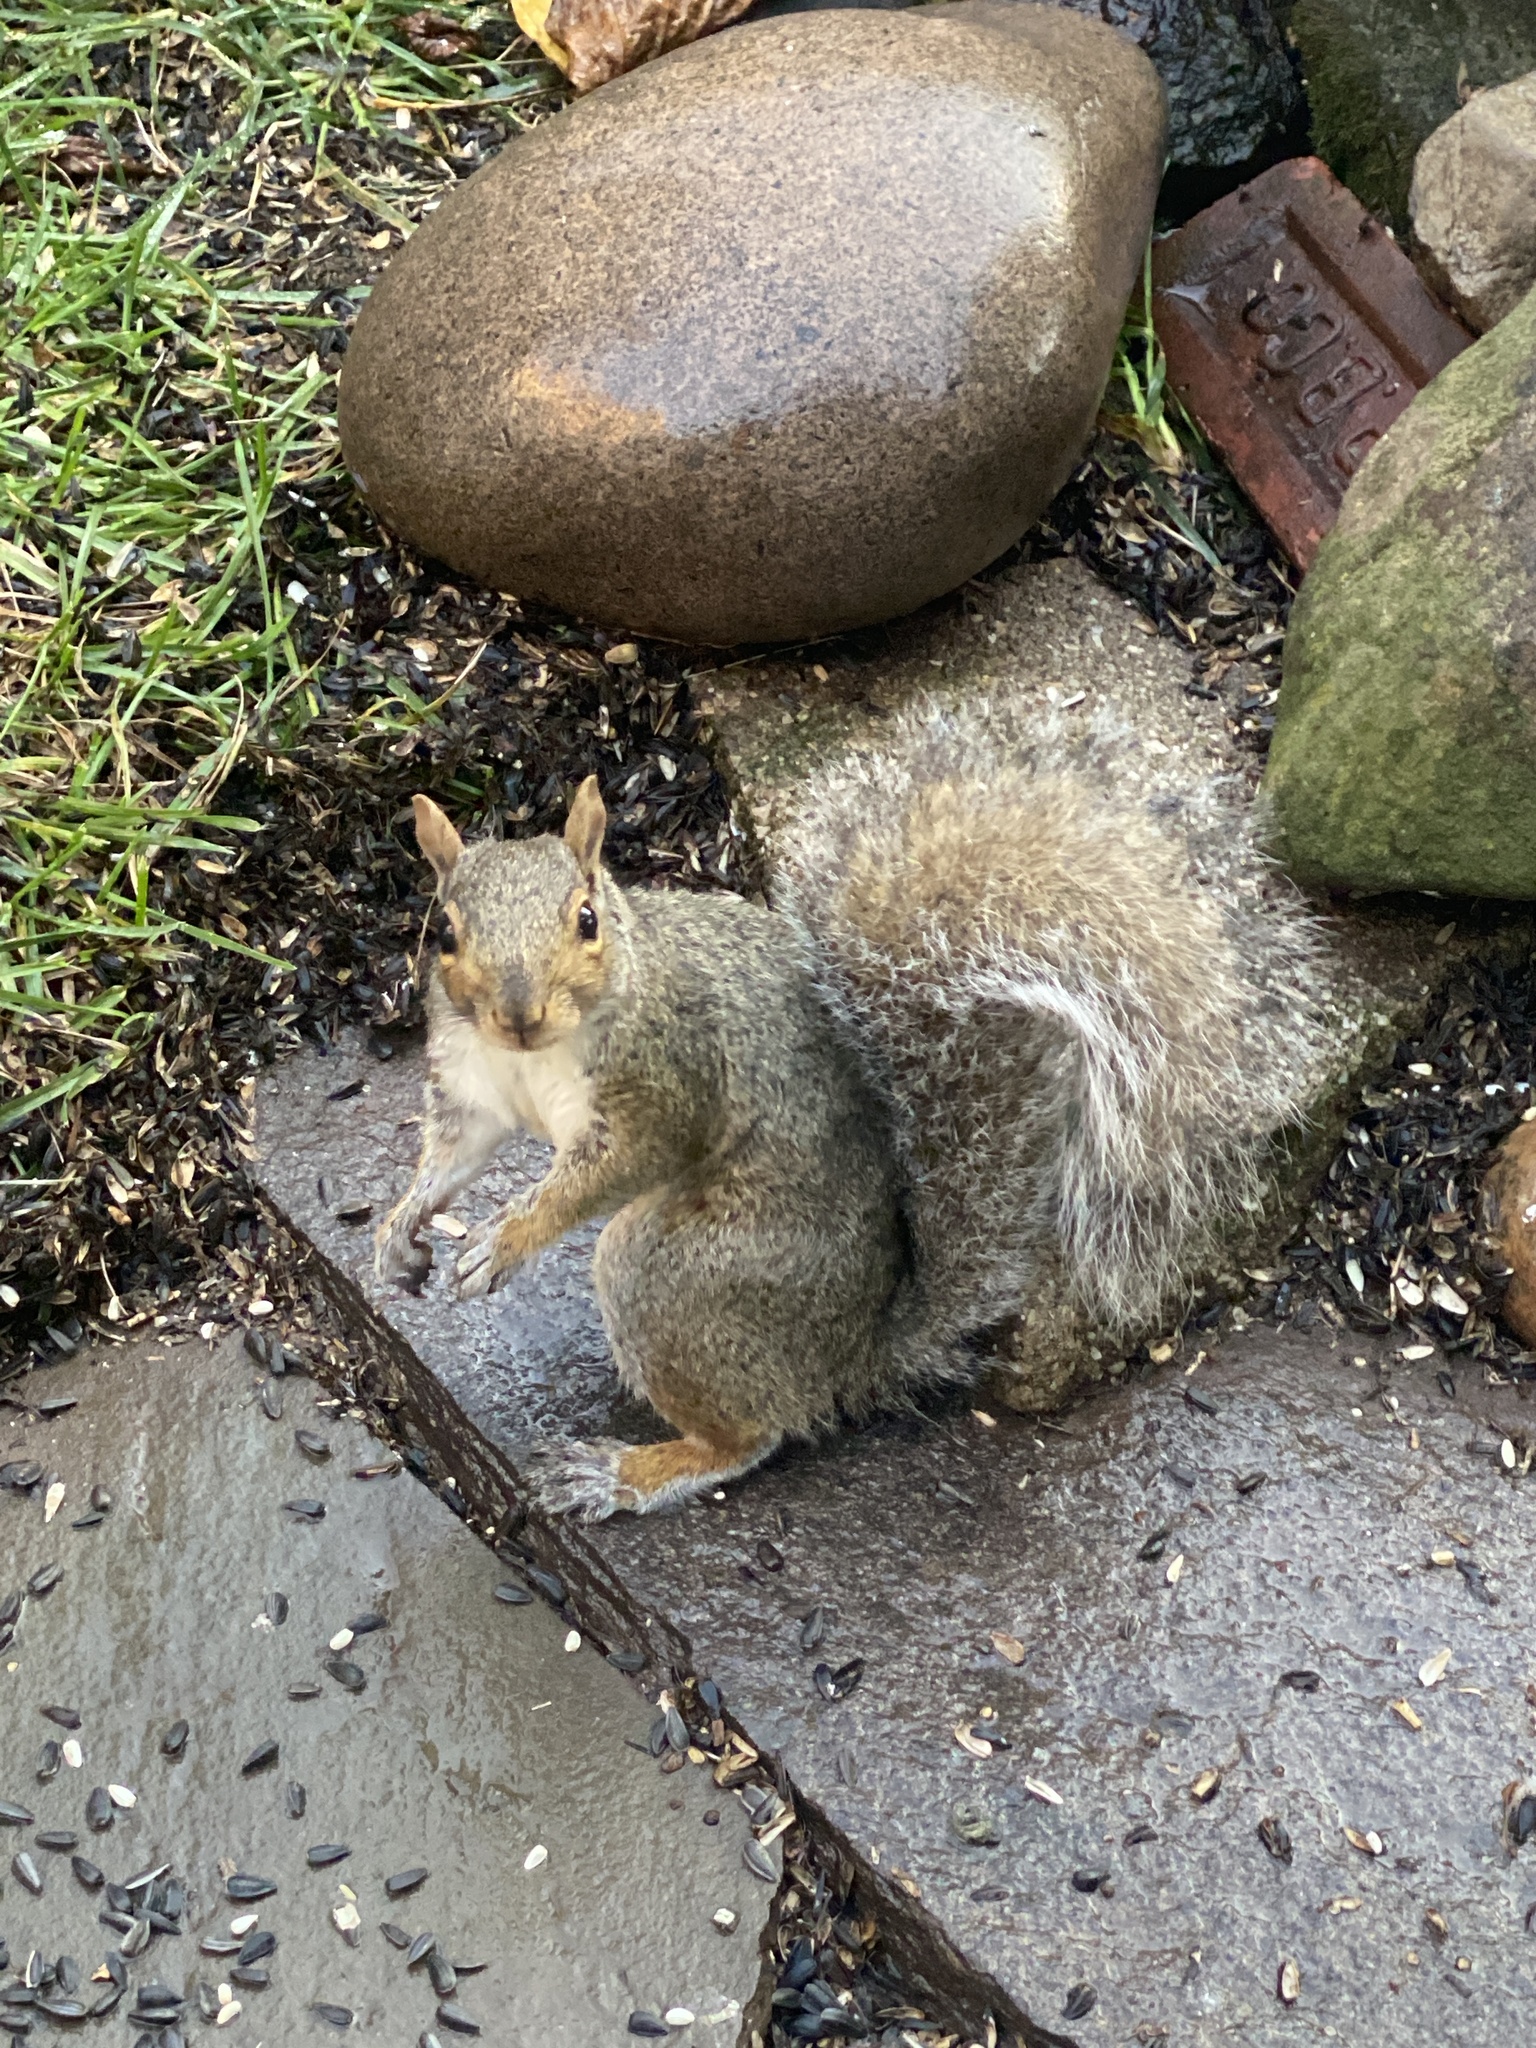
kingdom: Animalia
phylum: Chordata
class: Mammalia
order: Rodentia
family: Sciuridae
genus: Sciurus
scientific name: Sciurus carolinensis
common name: Eastern gray squirrel
